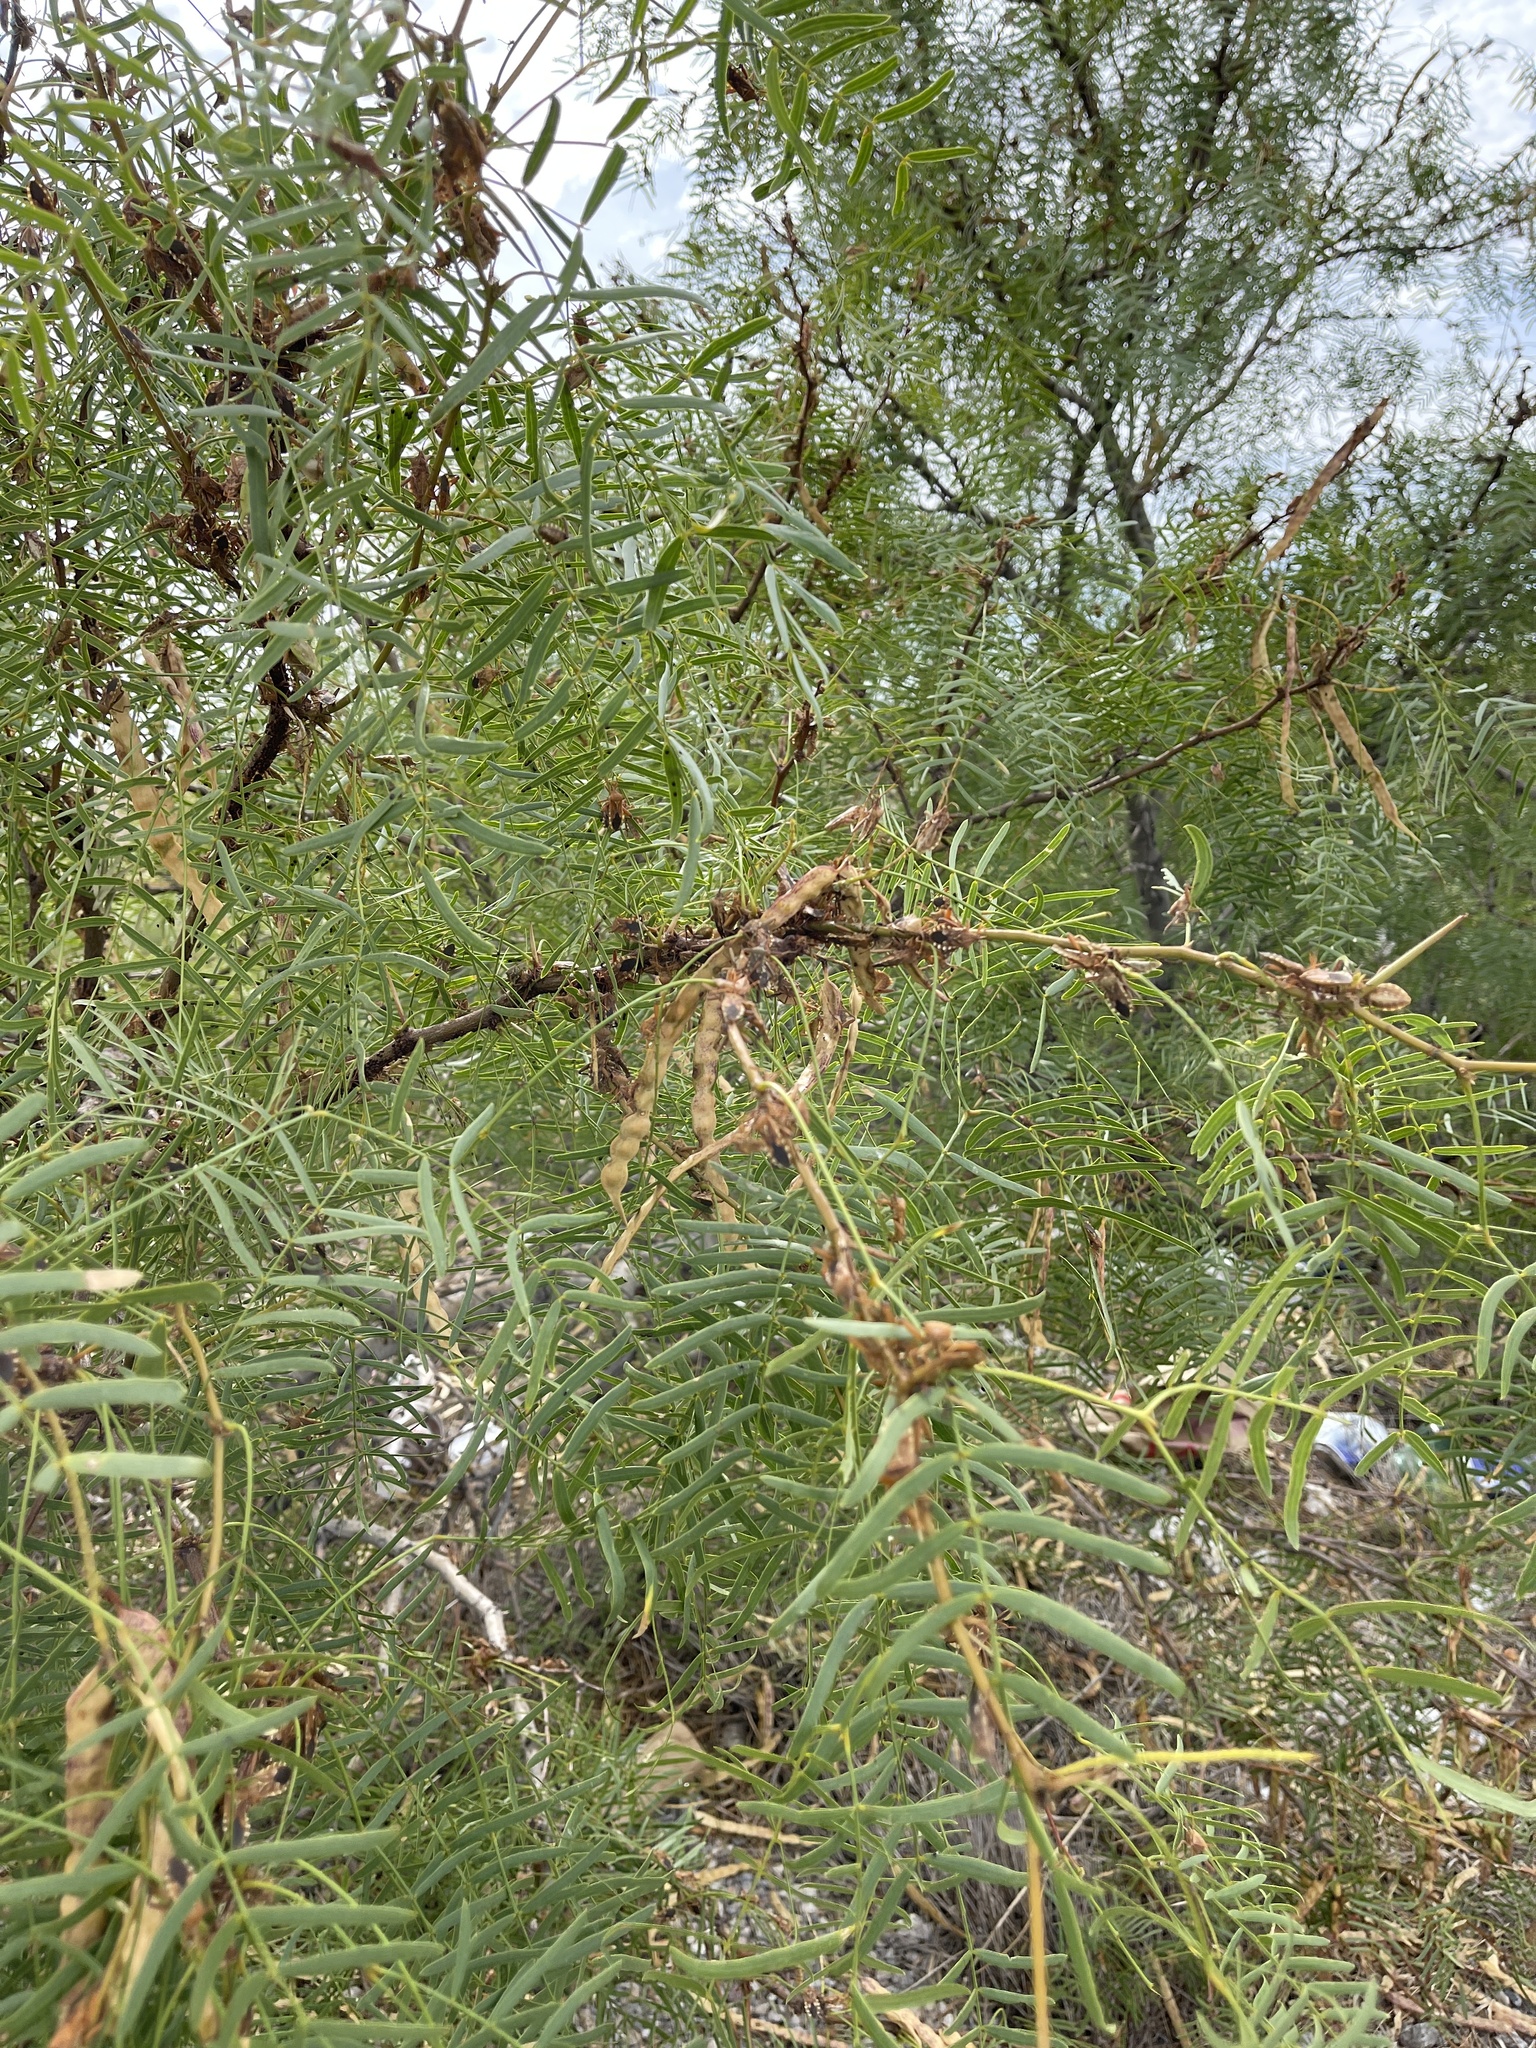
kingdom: Plantae
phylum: Tracheophyta
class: Magnoliopsida
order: Fabales
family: Fabaceae
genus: Prosopis
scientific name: Prosopis glandulosa
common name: Honey mesquite
